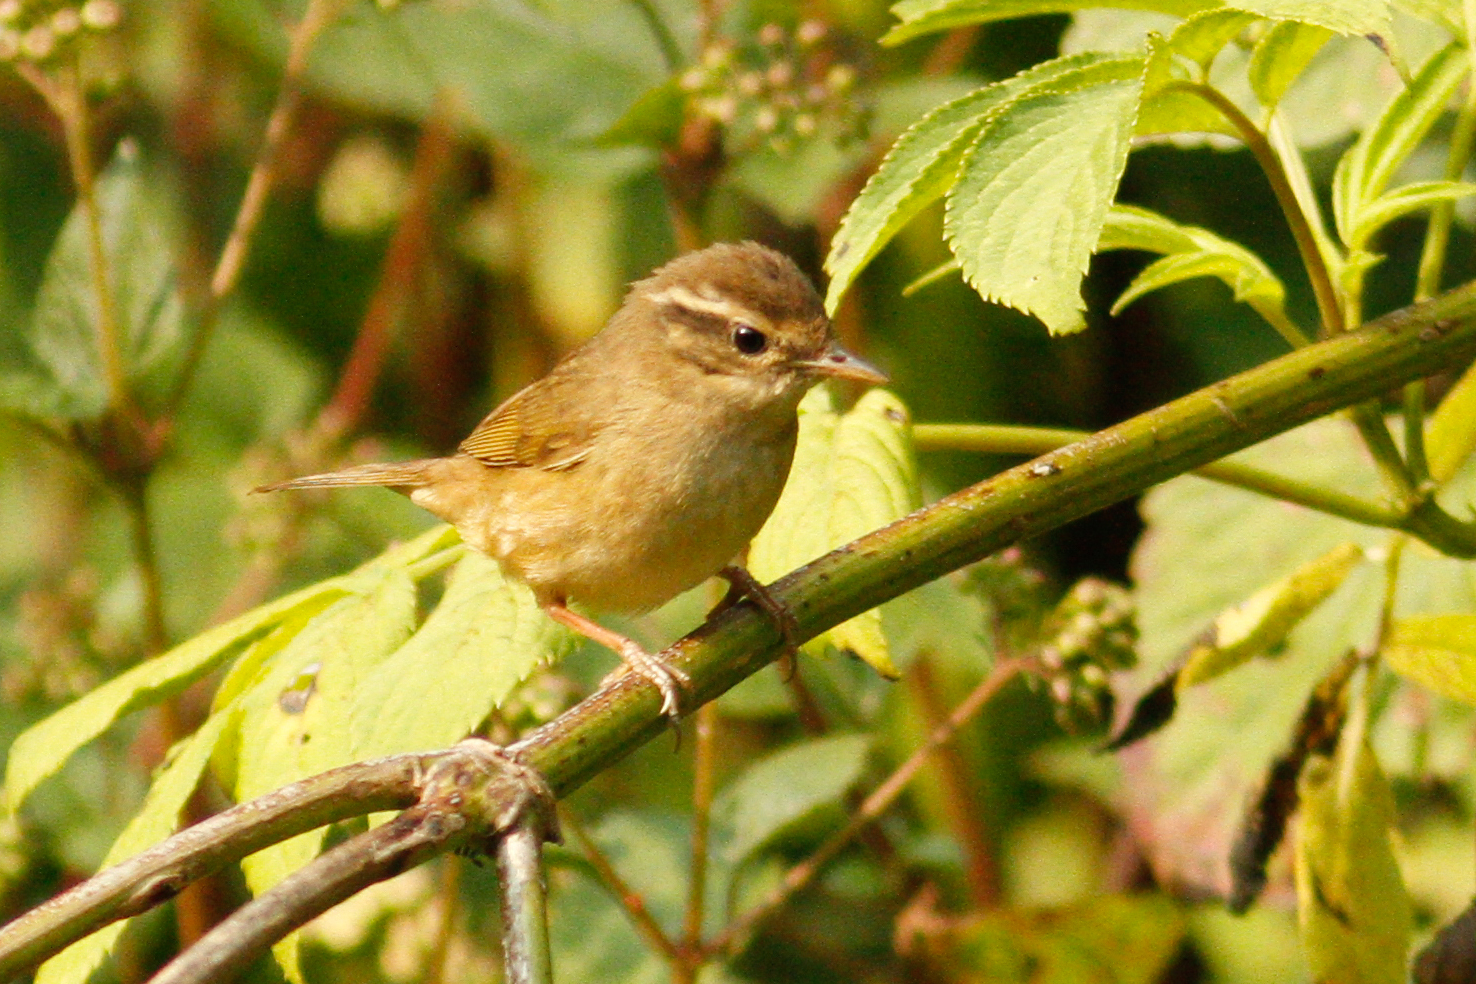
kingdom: Animalia
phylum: Chordata
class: Aves
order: Passeriformes
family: Phylloscopidae
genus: Phylloscopus
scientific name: Phylloscopus armandii
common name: Yellow-streaked warbler
